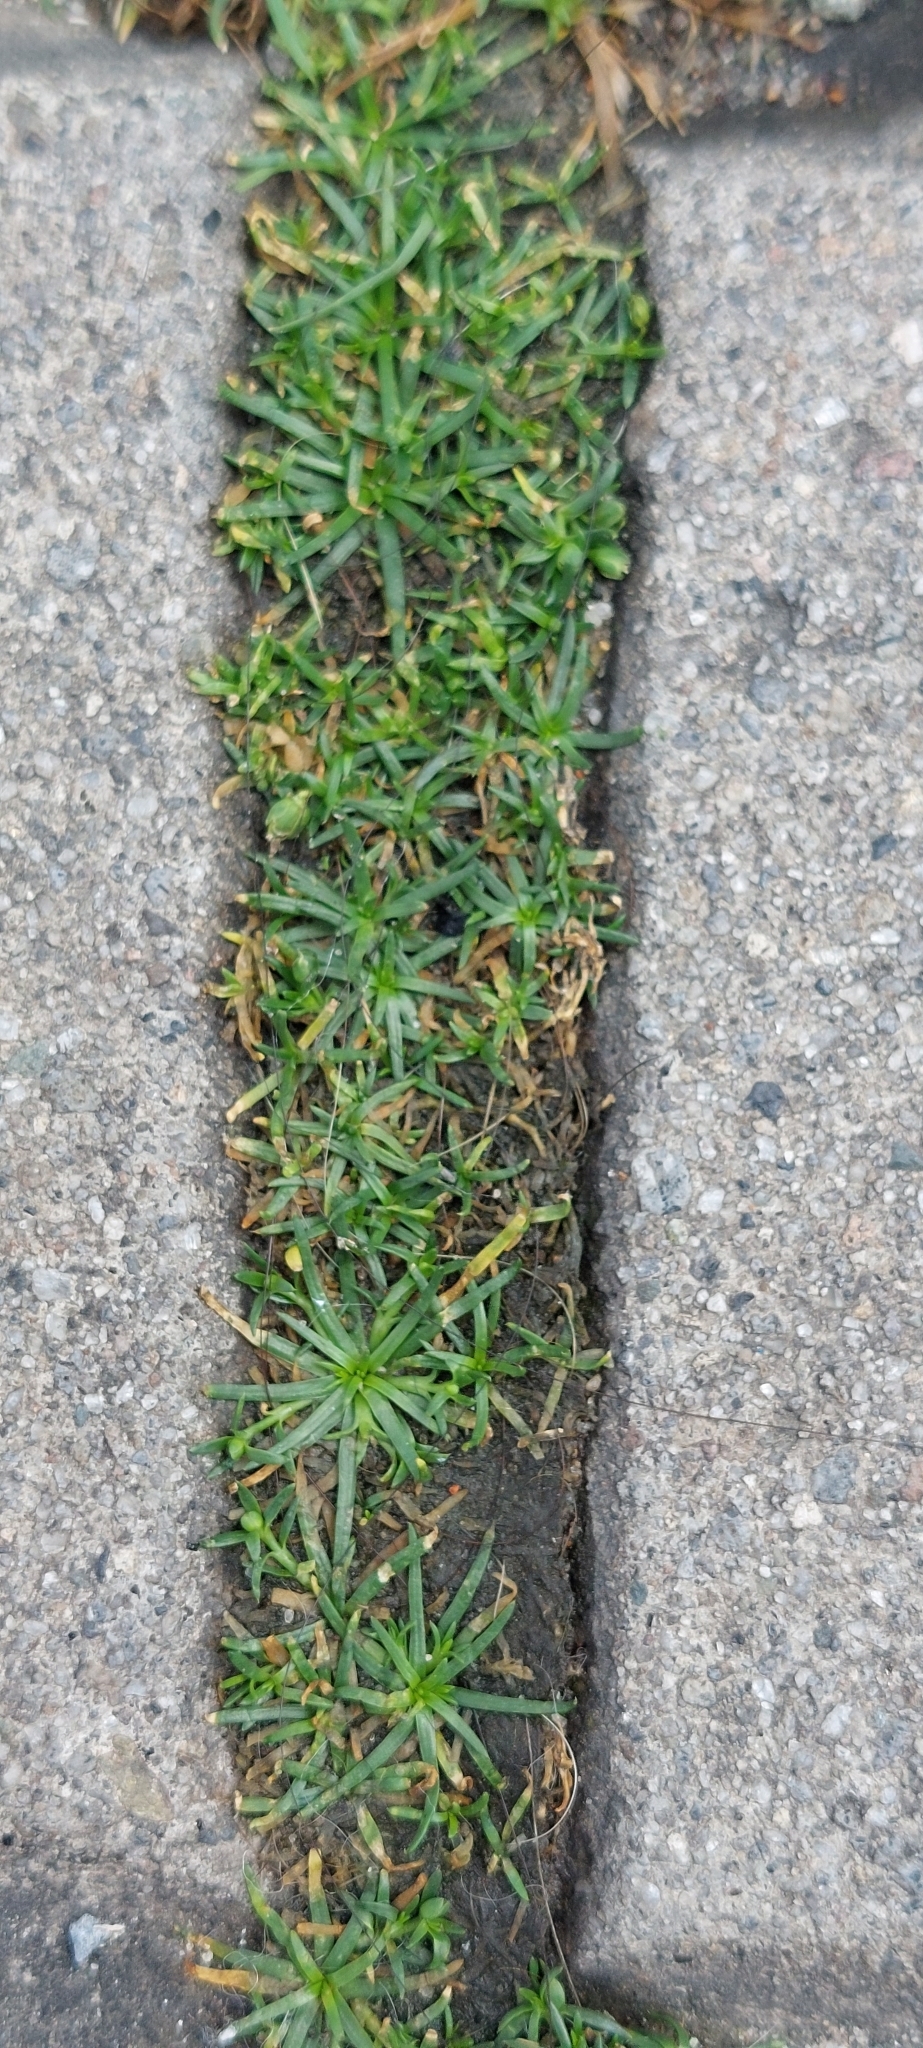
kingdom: Plantae
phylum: Tracheophyta
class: Magnoliopsida
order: Caryophyllales
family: Caryophyllaceae
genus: Sagina
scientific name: Sagina procumbens
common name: Procumbent pearlwort
